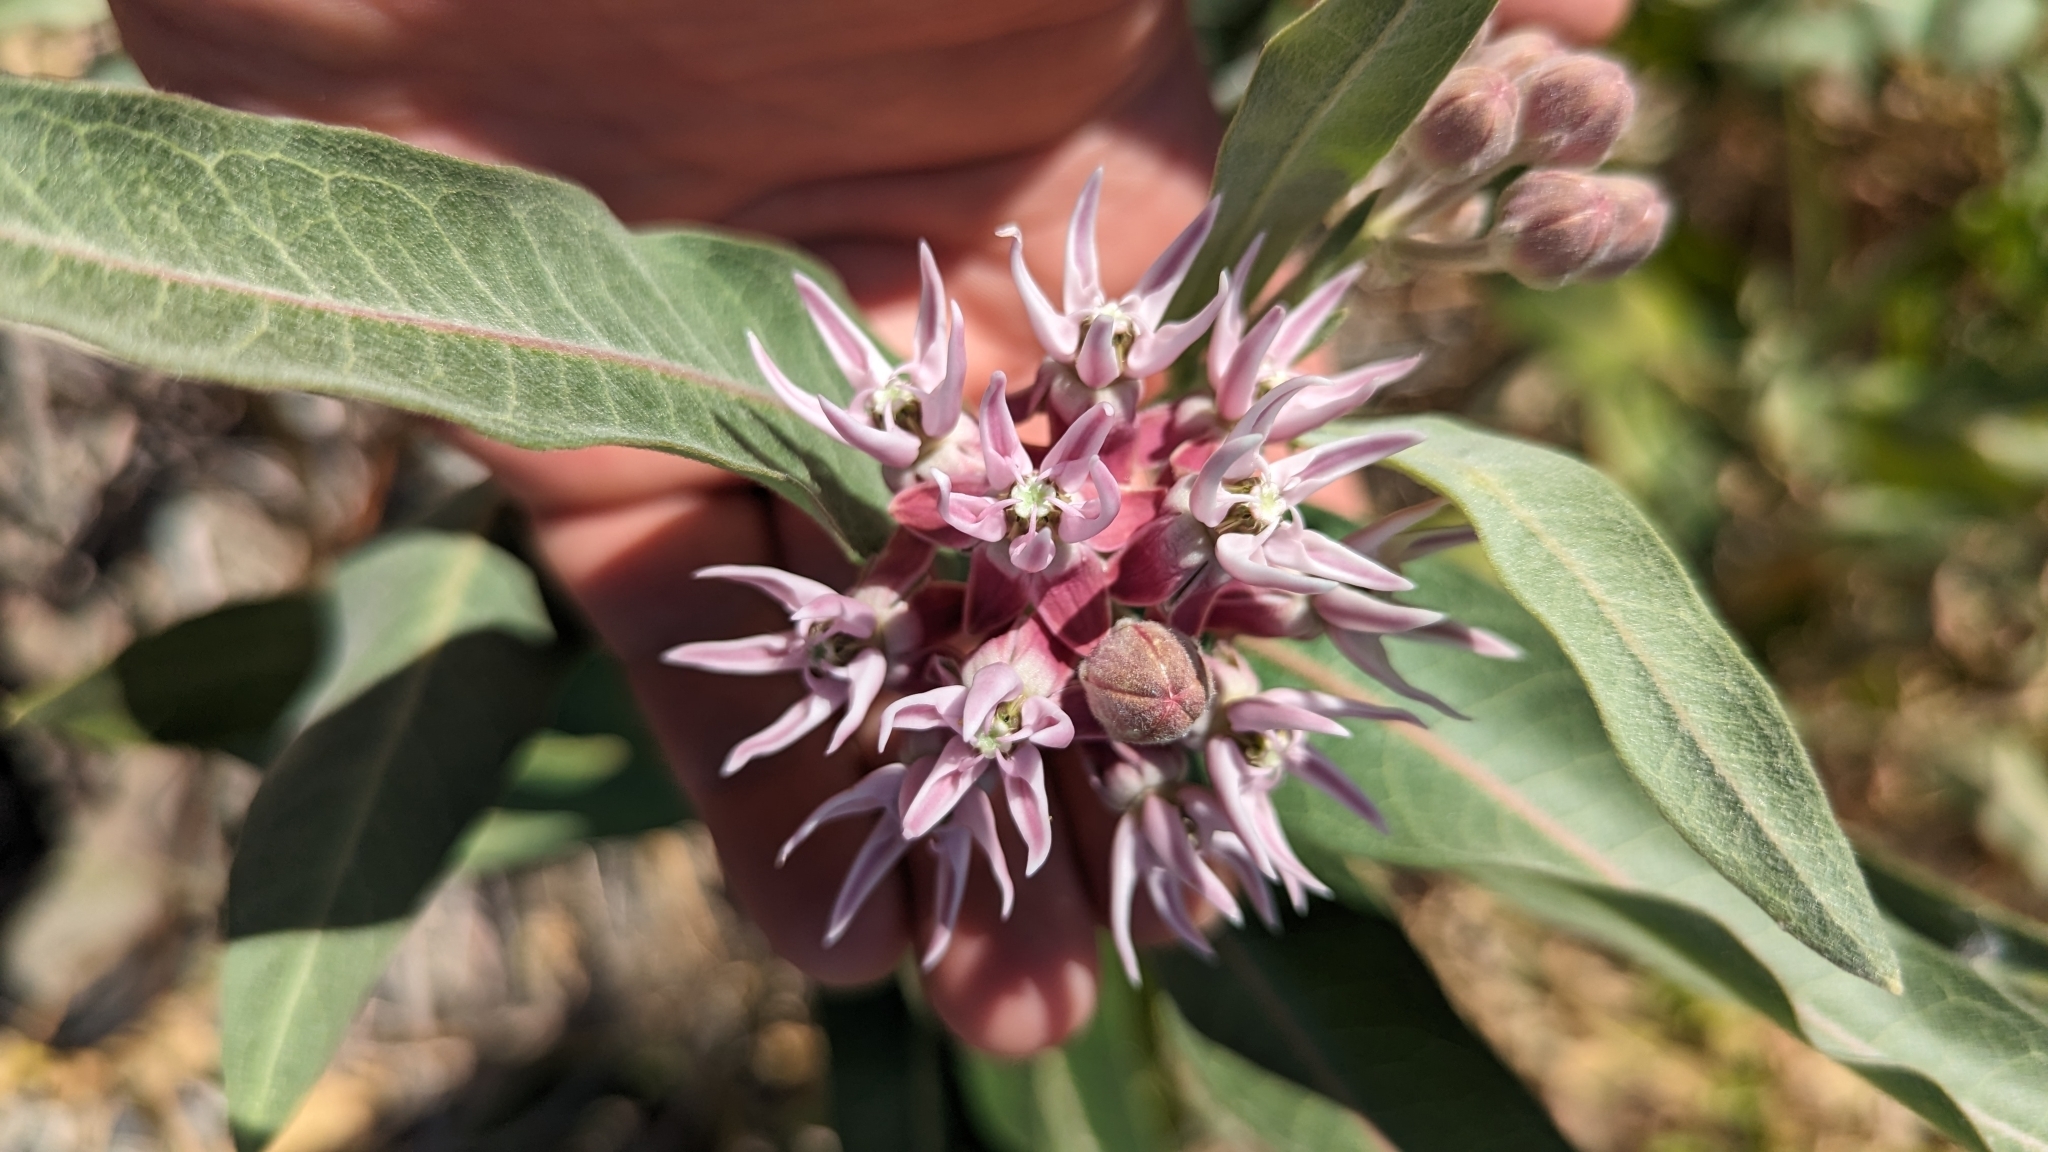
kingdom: Plantae
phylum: Tracheophyta
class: Magnoliopsida
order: Gentianales
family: Apocynaceae
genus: Asclepias
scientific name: Asclepias speciosa
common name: Showy milkweed
